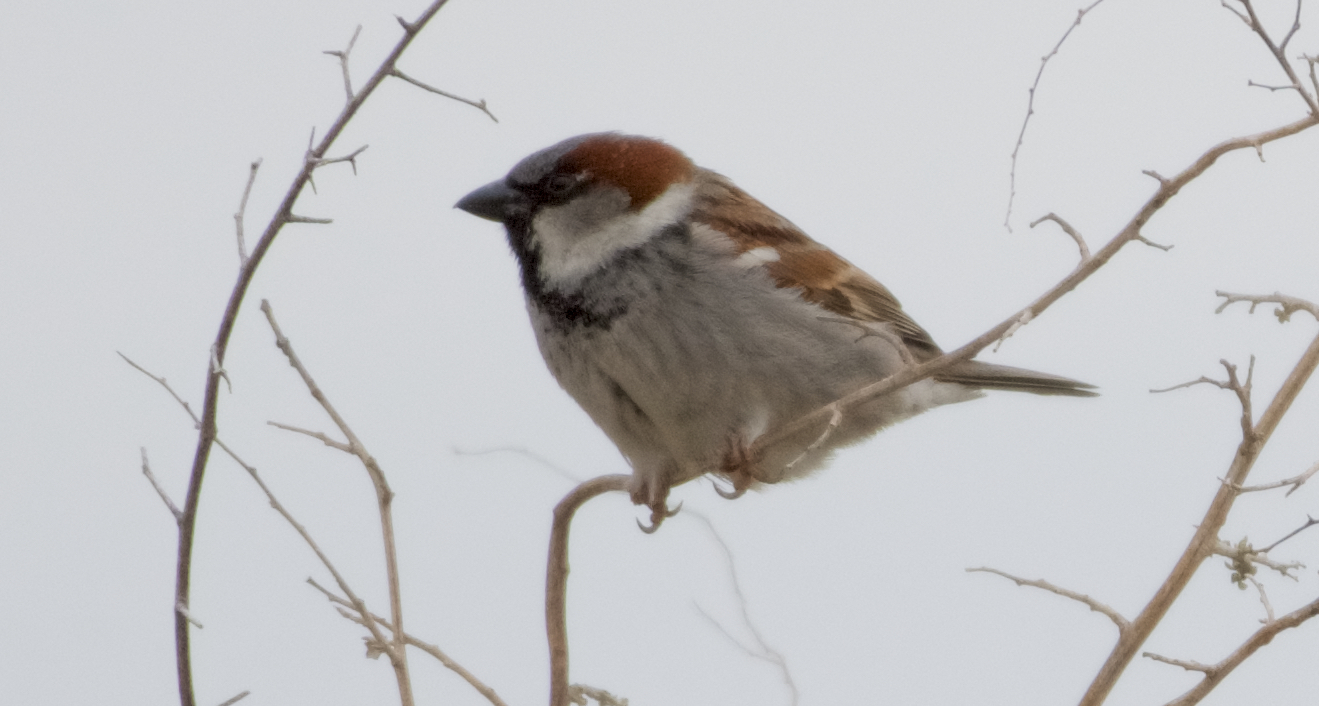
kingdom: Animalia
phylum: Chordata
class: Aves
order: Passeriformes
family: Passeridae
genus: Passer
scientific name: Passer domesticus
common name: House sparrow
